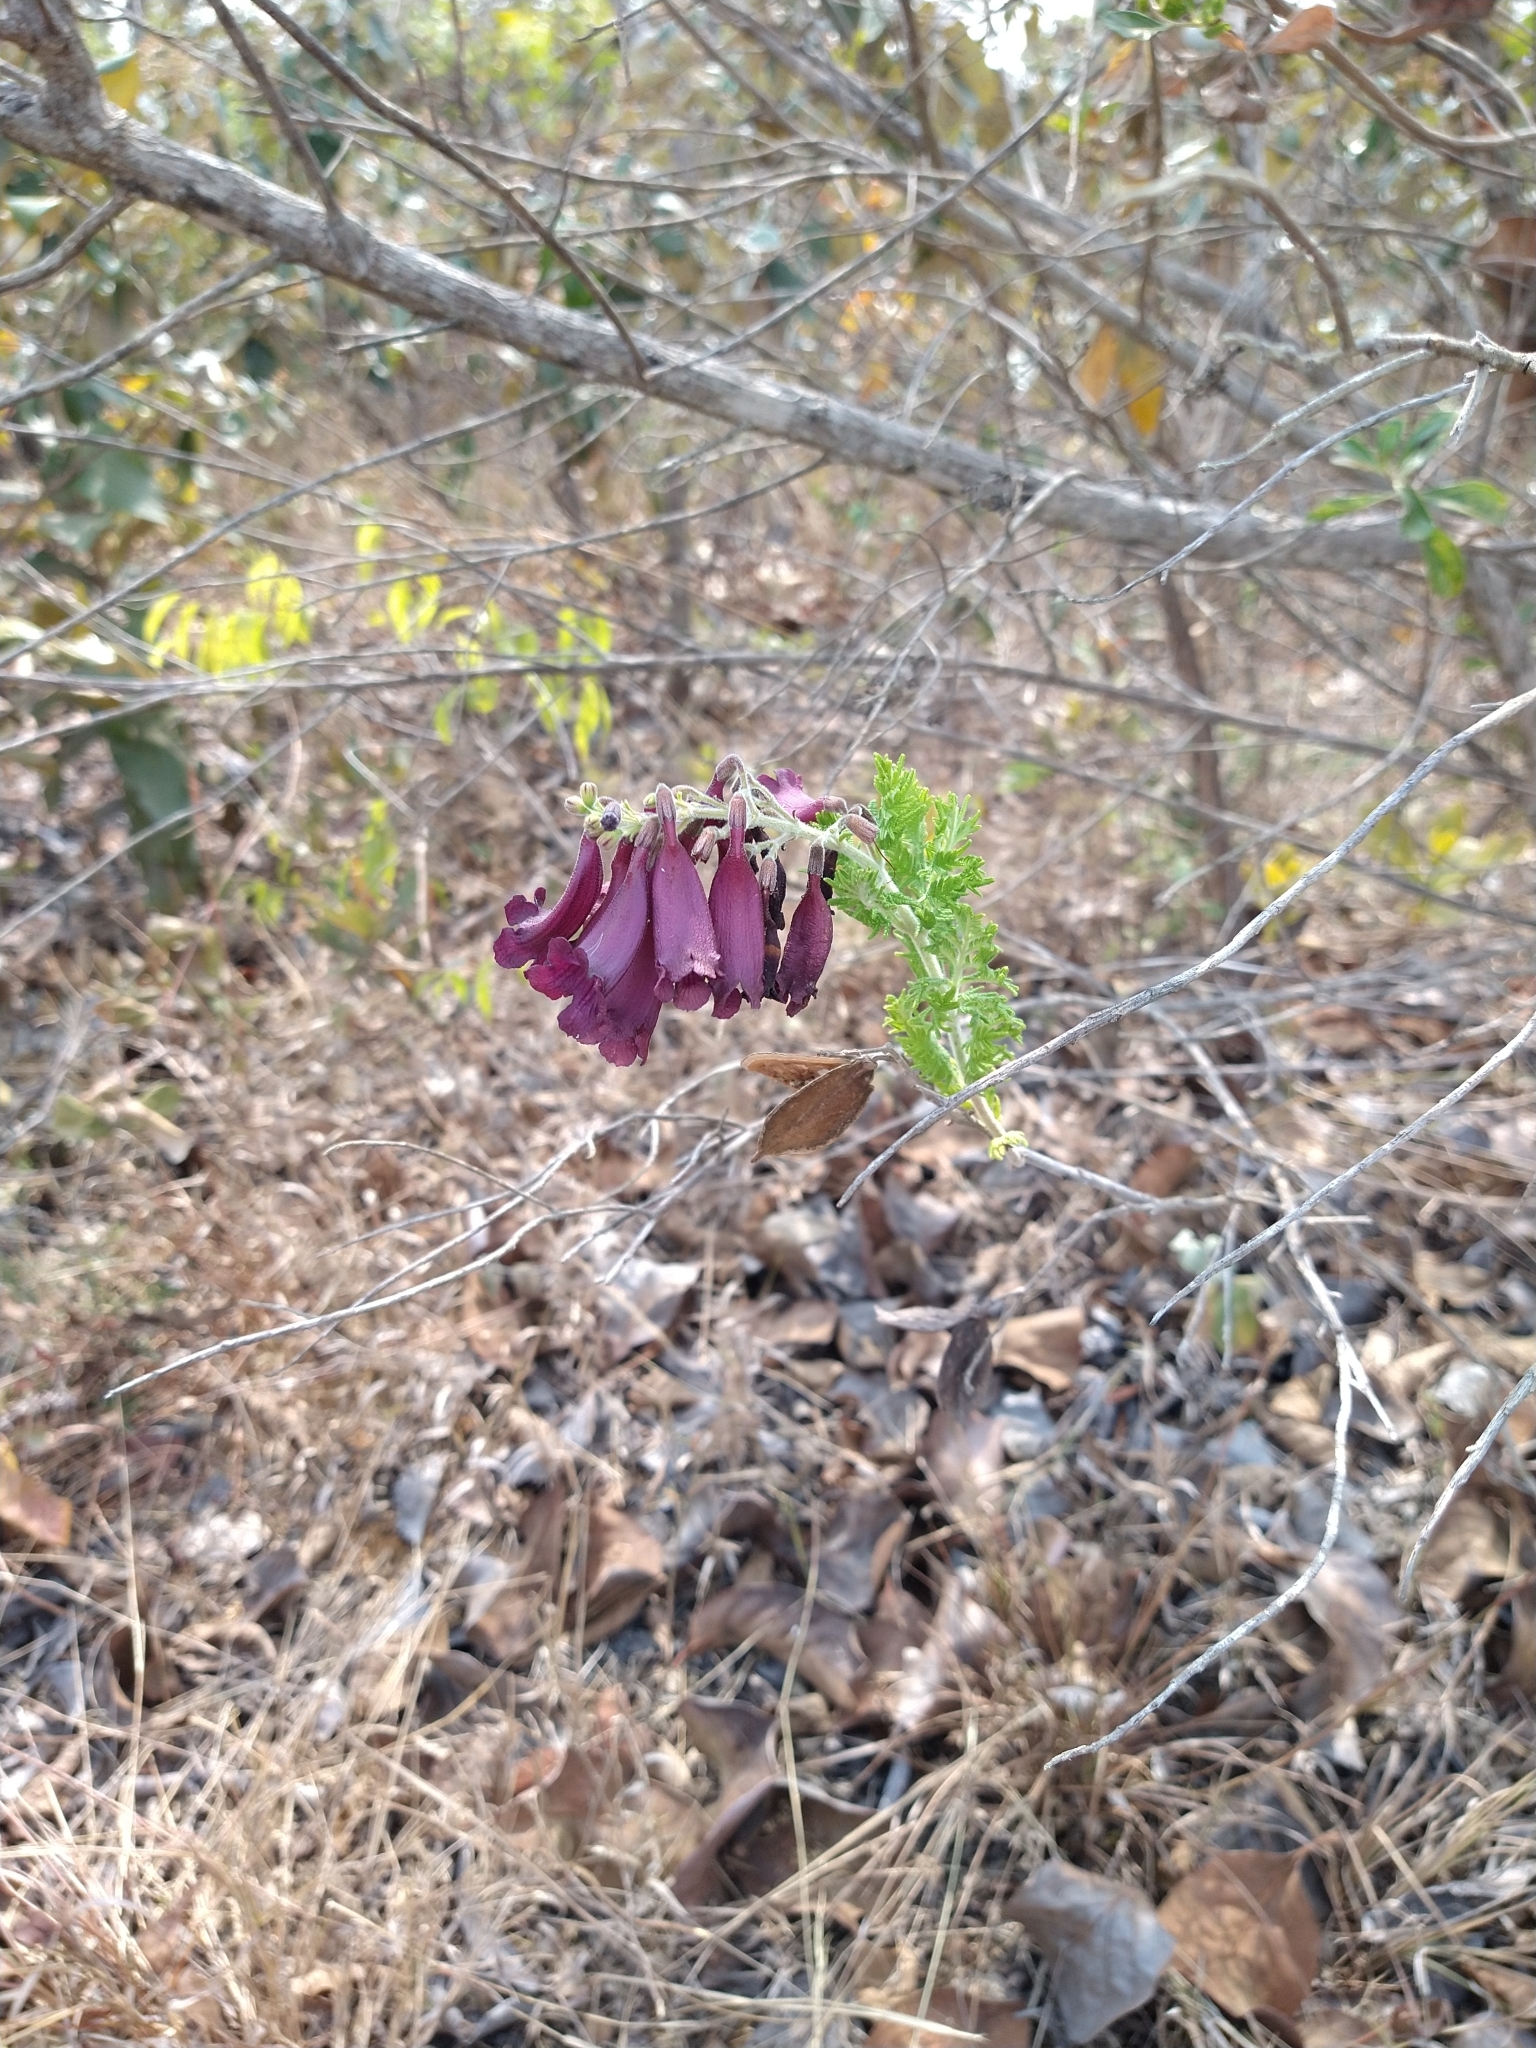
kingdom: Plantae
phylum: Tracheophyta
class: Magnoliopsida
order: Lamiales
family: Bignoniaceae
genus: Jacaranda
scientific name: Jacaranda ulei
